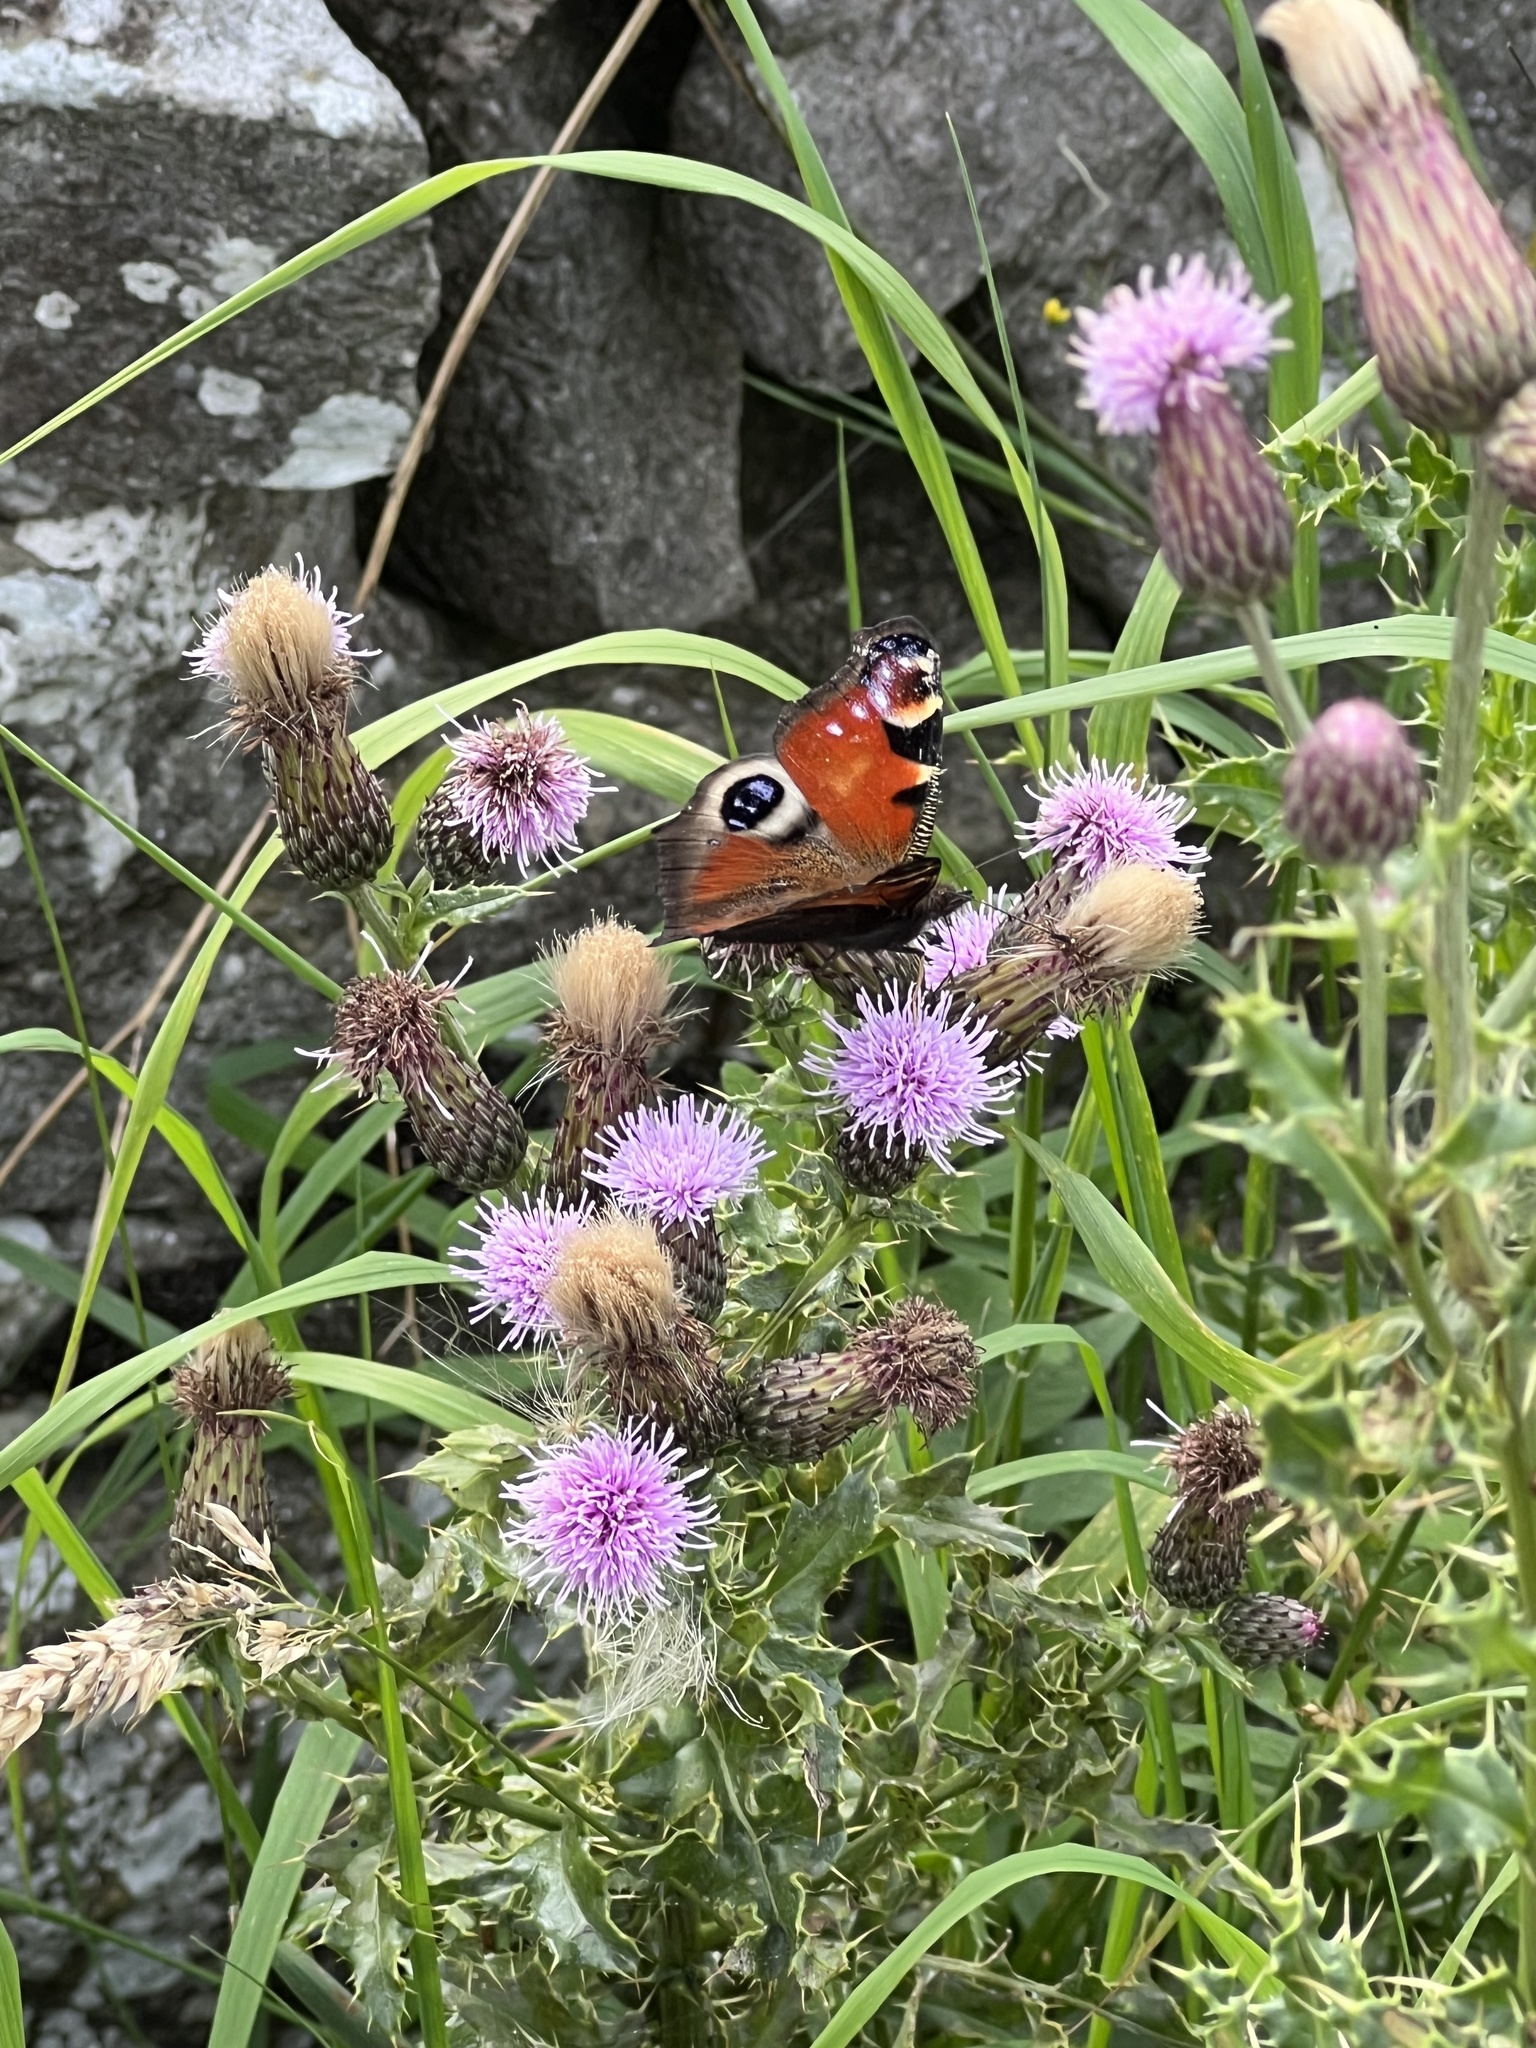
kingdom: Animalia
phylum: Arthropoda
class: Insecta
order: Lepidoptera
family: Nymphalidae
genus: Aglais
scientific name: Aglais io
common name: Peacock
